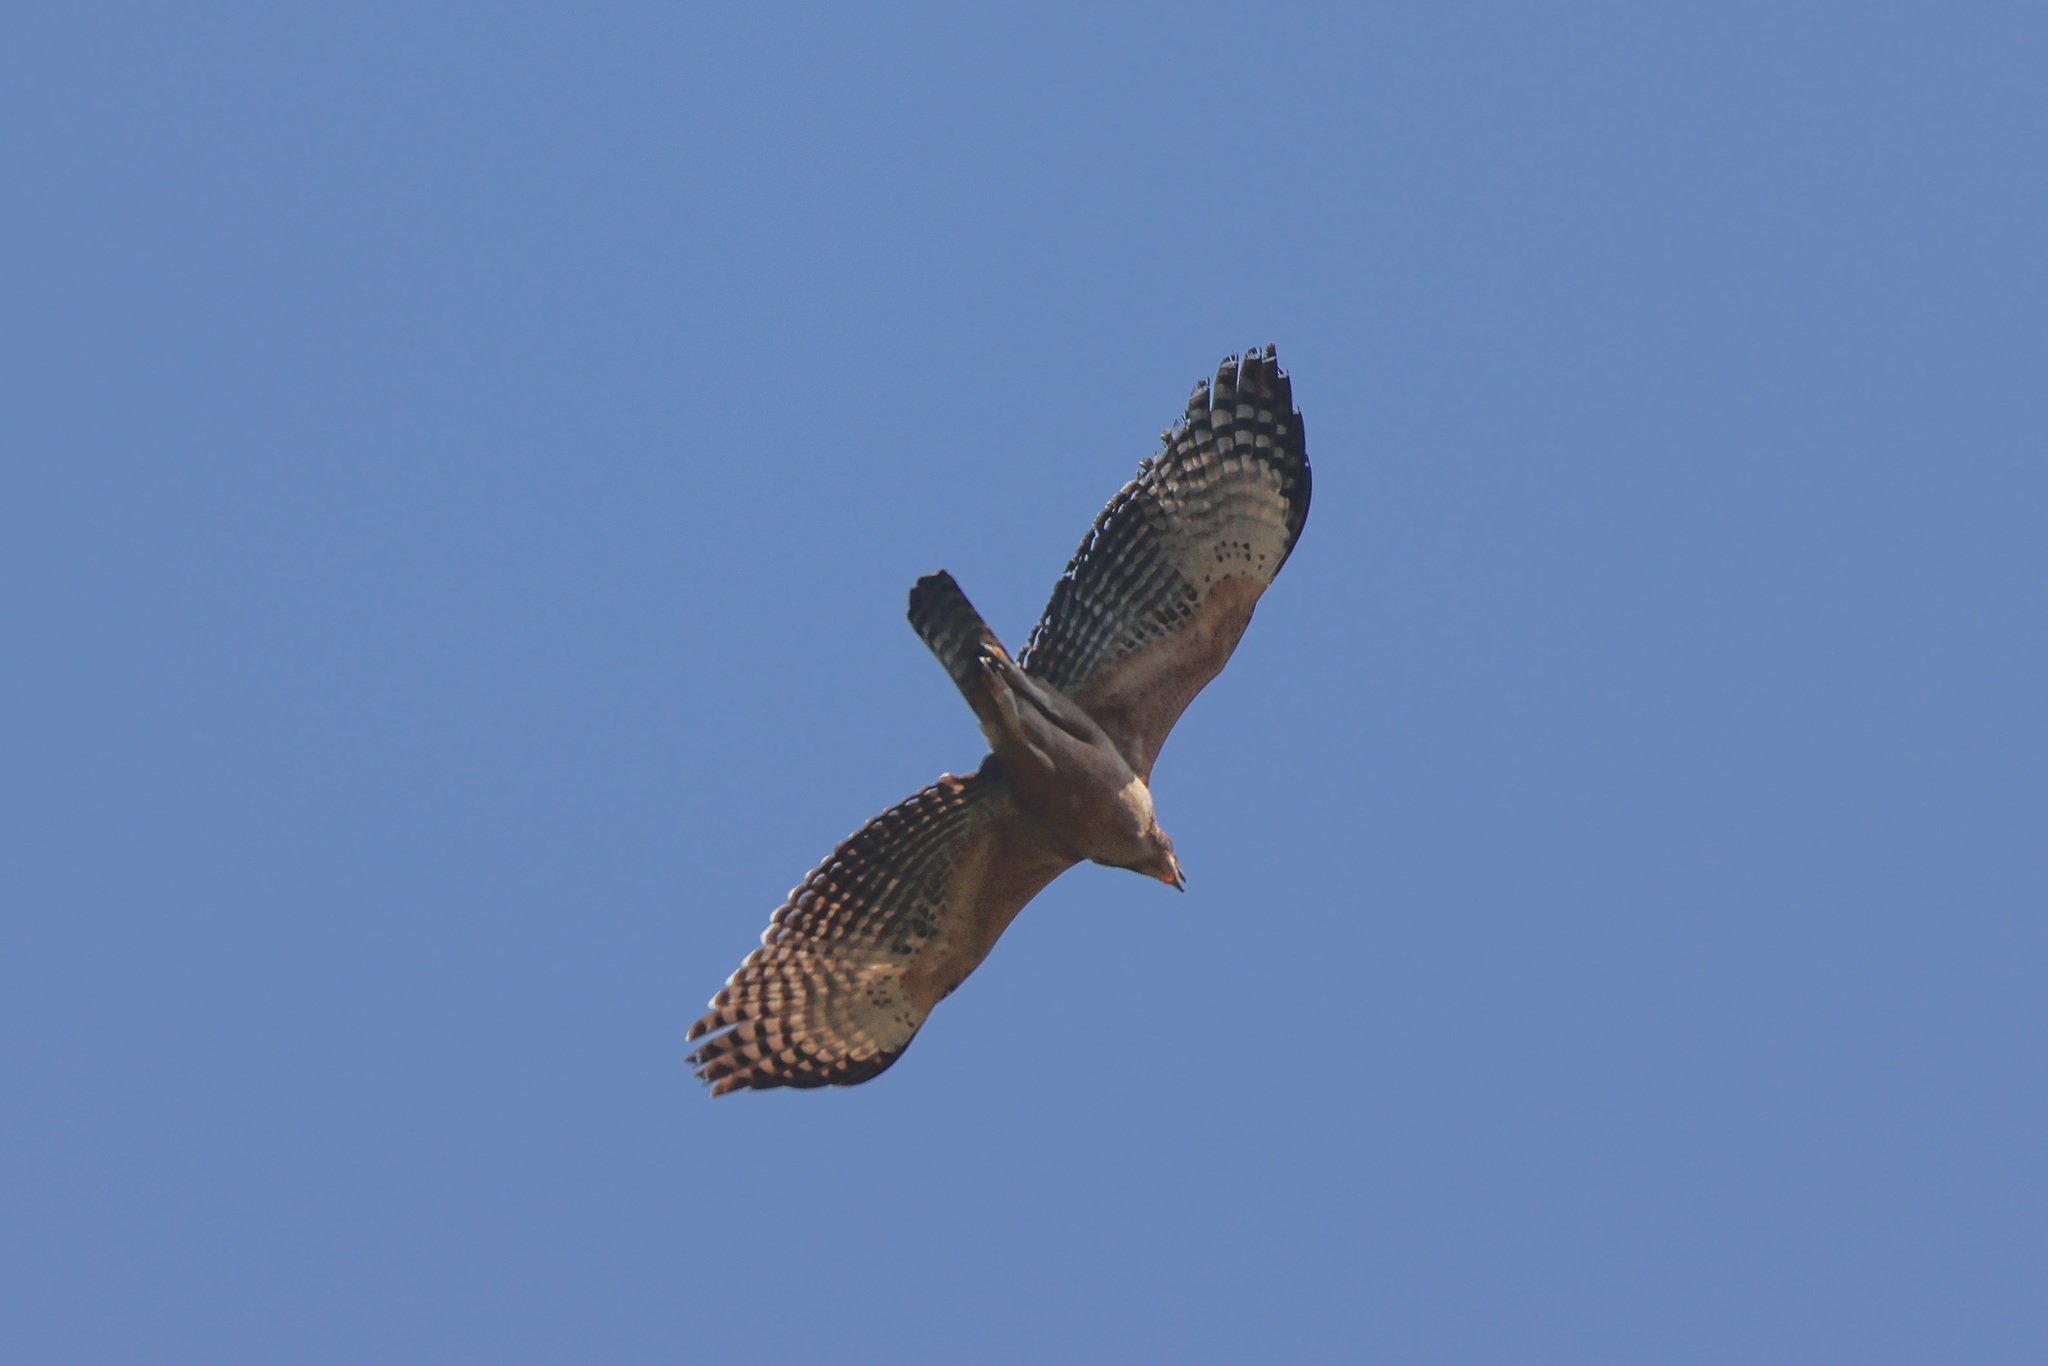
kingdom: Animalia
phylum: Chordata
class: Aves
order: Accipitriformes
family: Accipitridae
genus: Nisaetus
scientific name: Nisaetus nipalensis
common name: Mountain hawk-eagle
